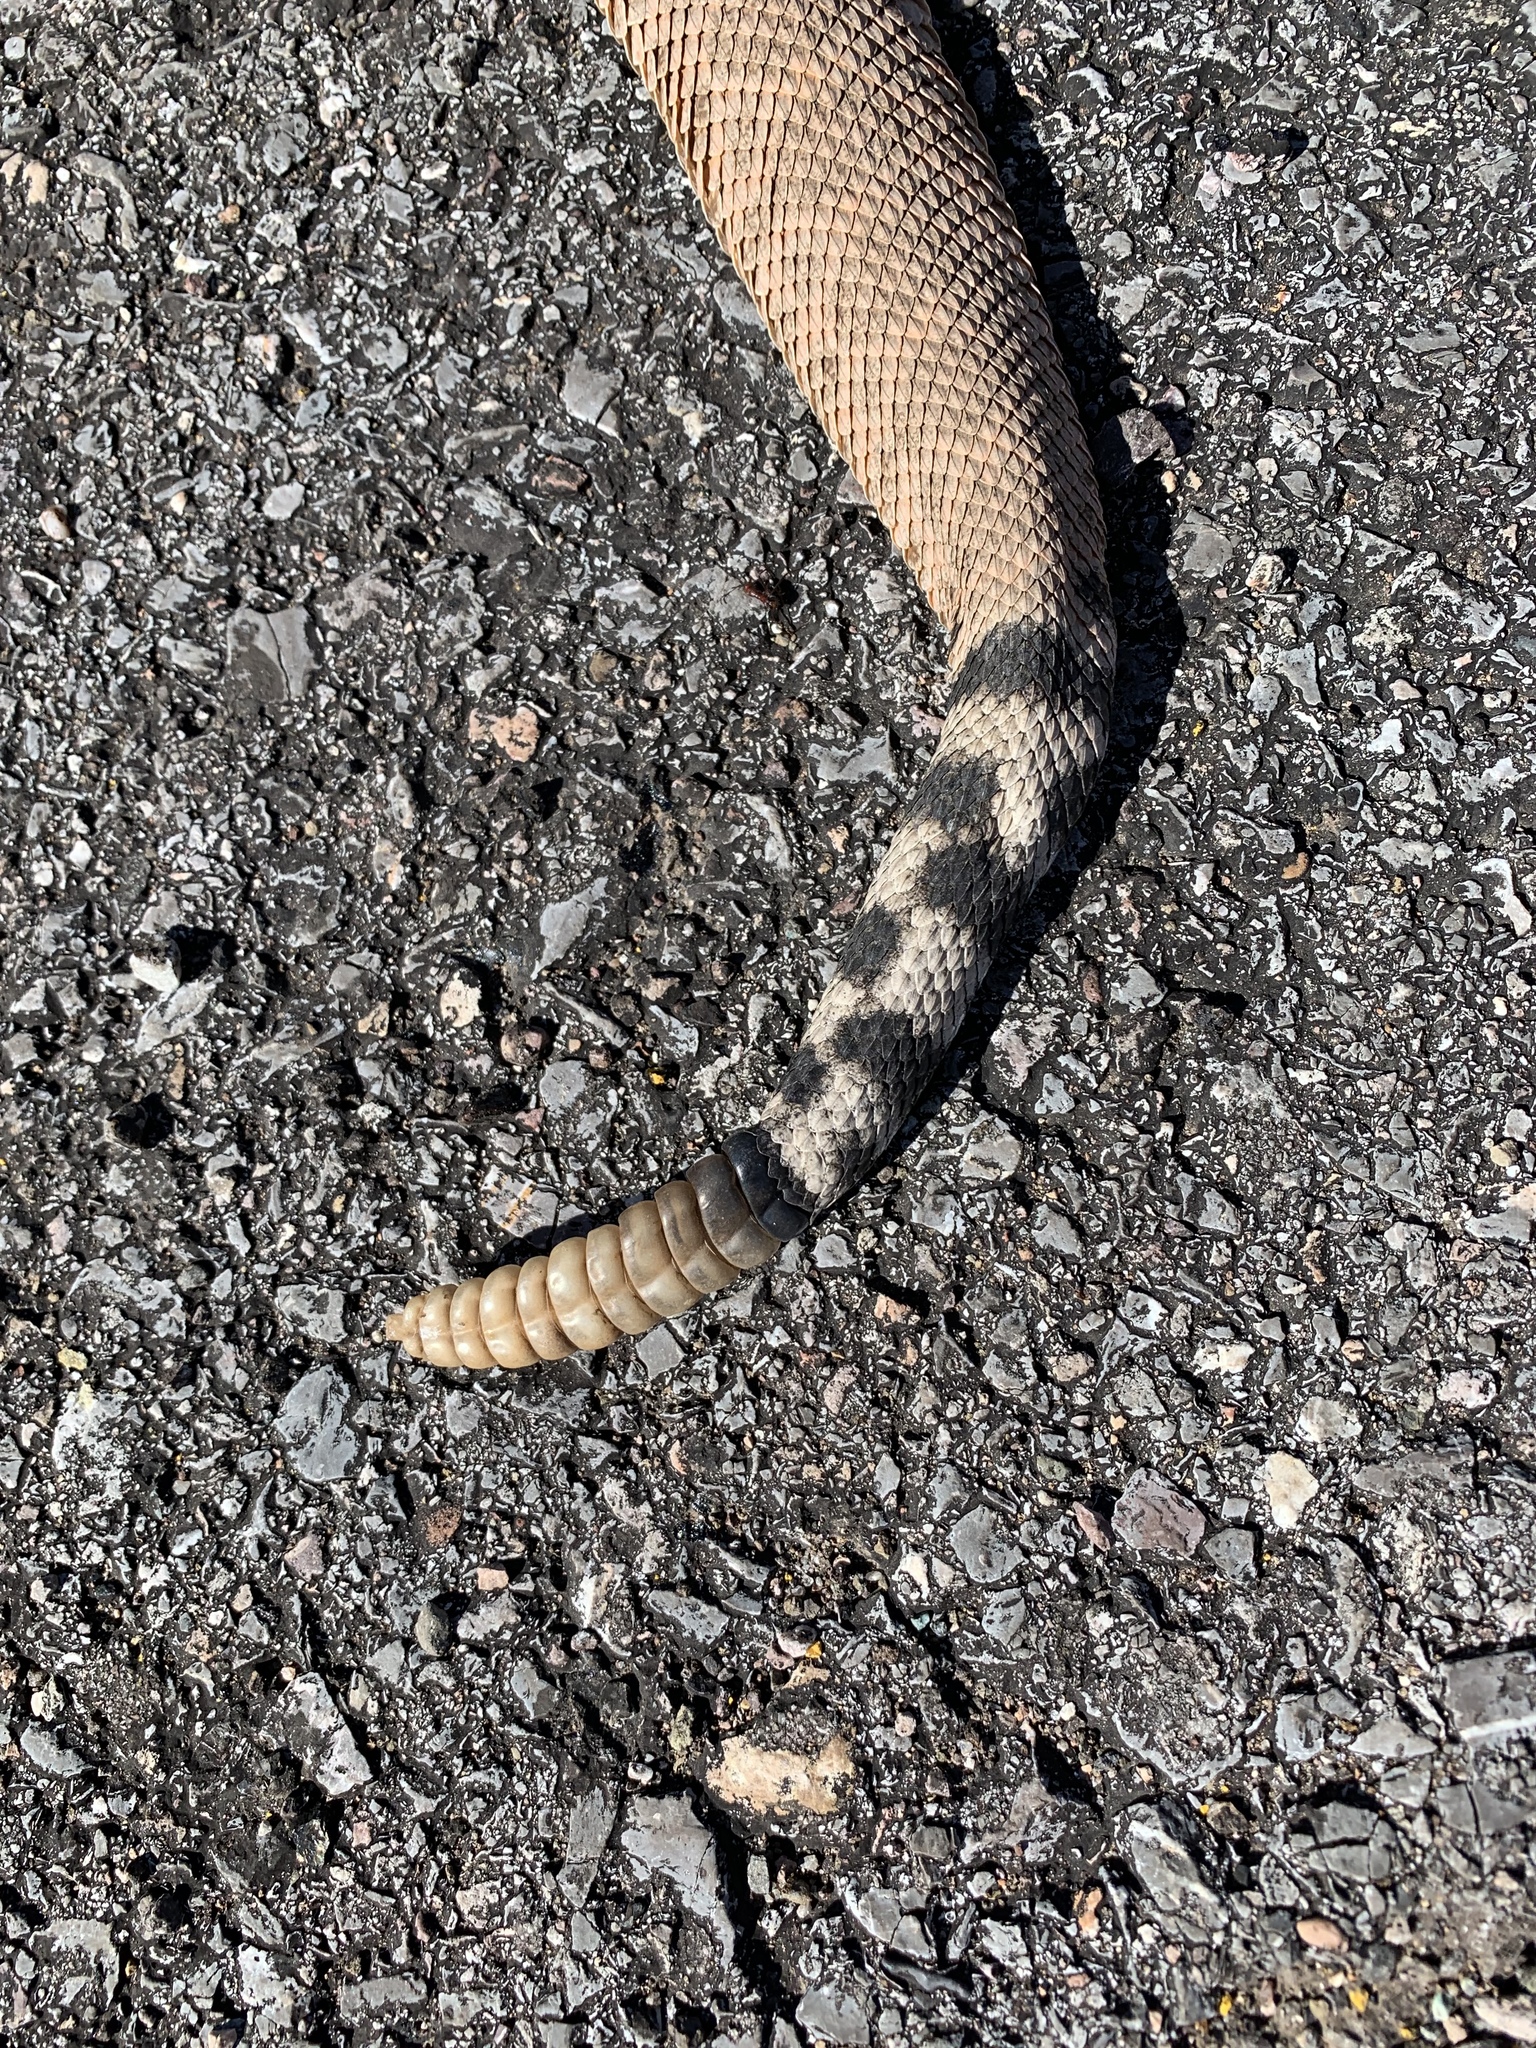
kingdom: Animalia
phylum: Chordata
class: Squamata
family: Viperidae
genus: Crotalus
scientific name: Crotalus atrox
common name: Western diamond-backed rattlesnake
